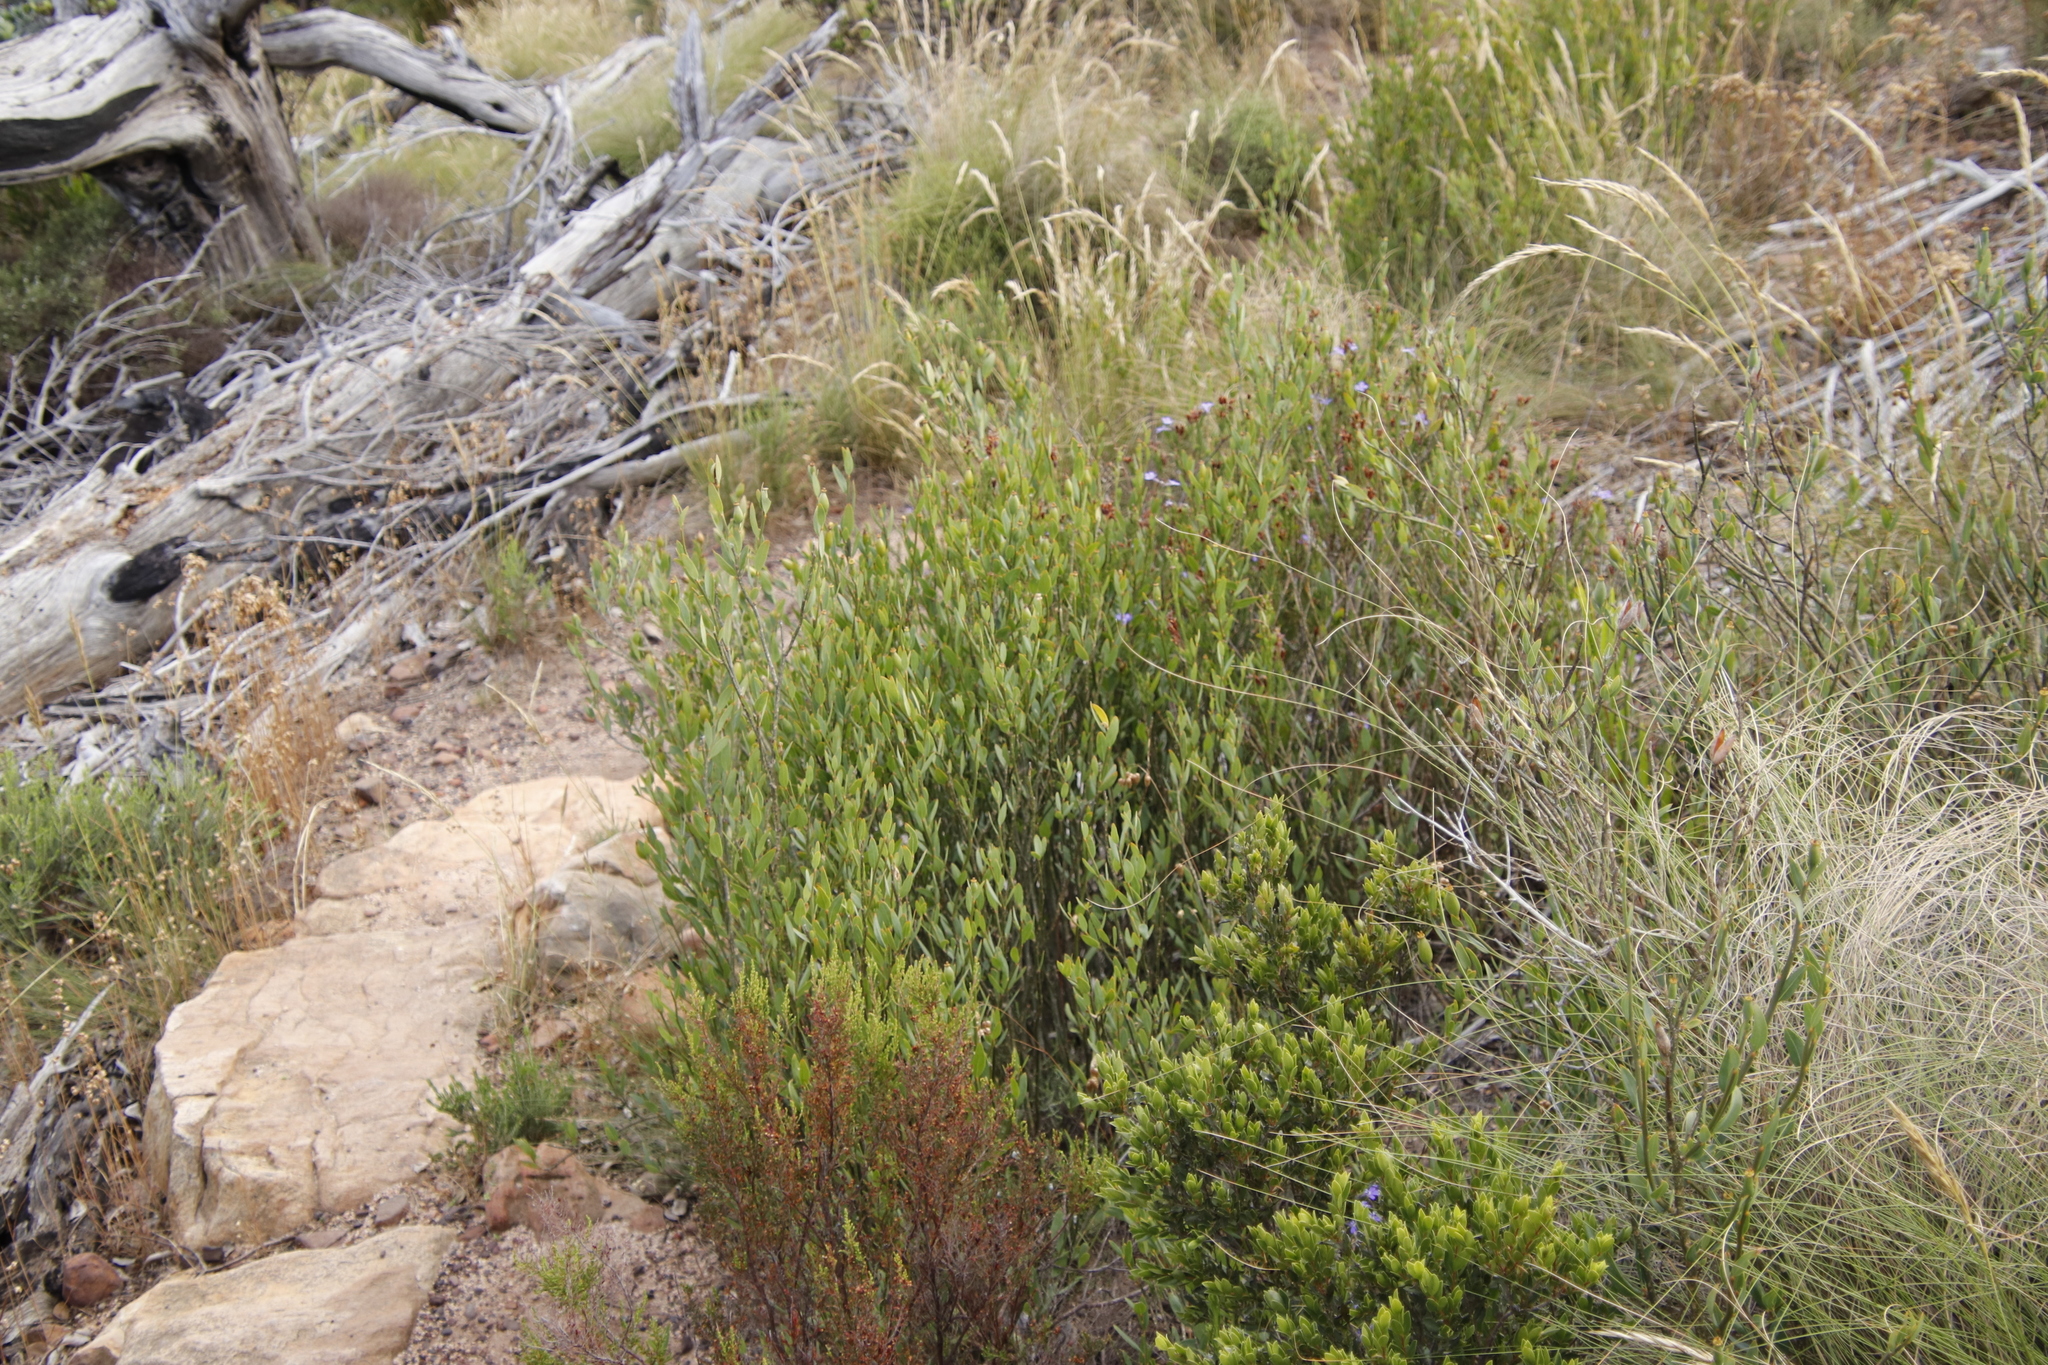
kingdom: Plantae
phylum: Tracheophyta
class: Magnoliopsida
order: Solanales
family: Montiniaceae
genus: Montinia
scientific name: Montinia caryophyllacea
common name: Wild clove-bush
